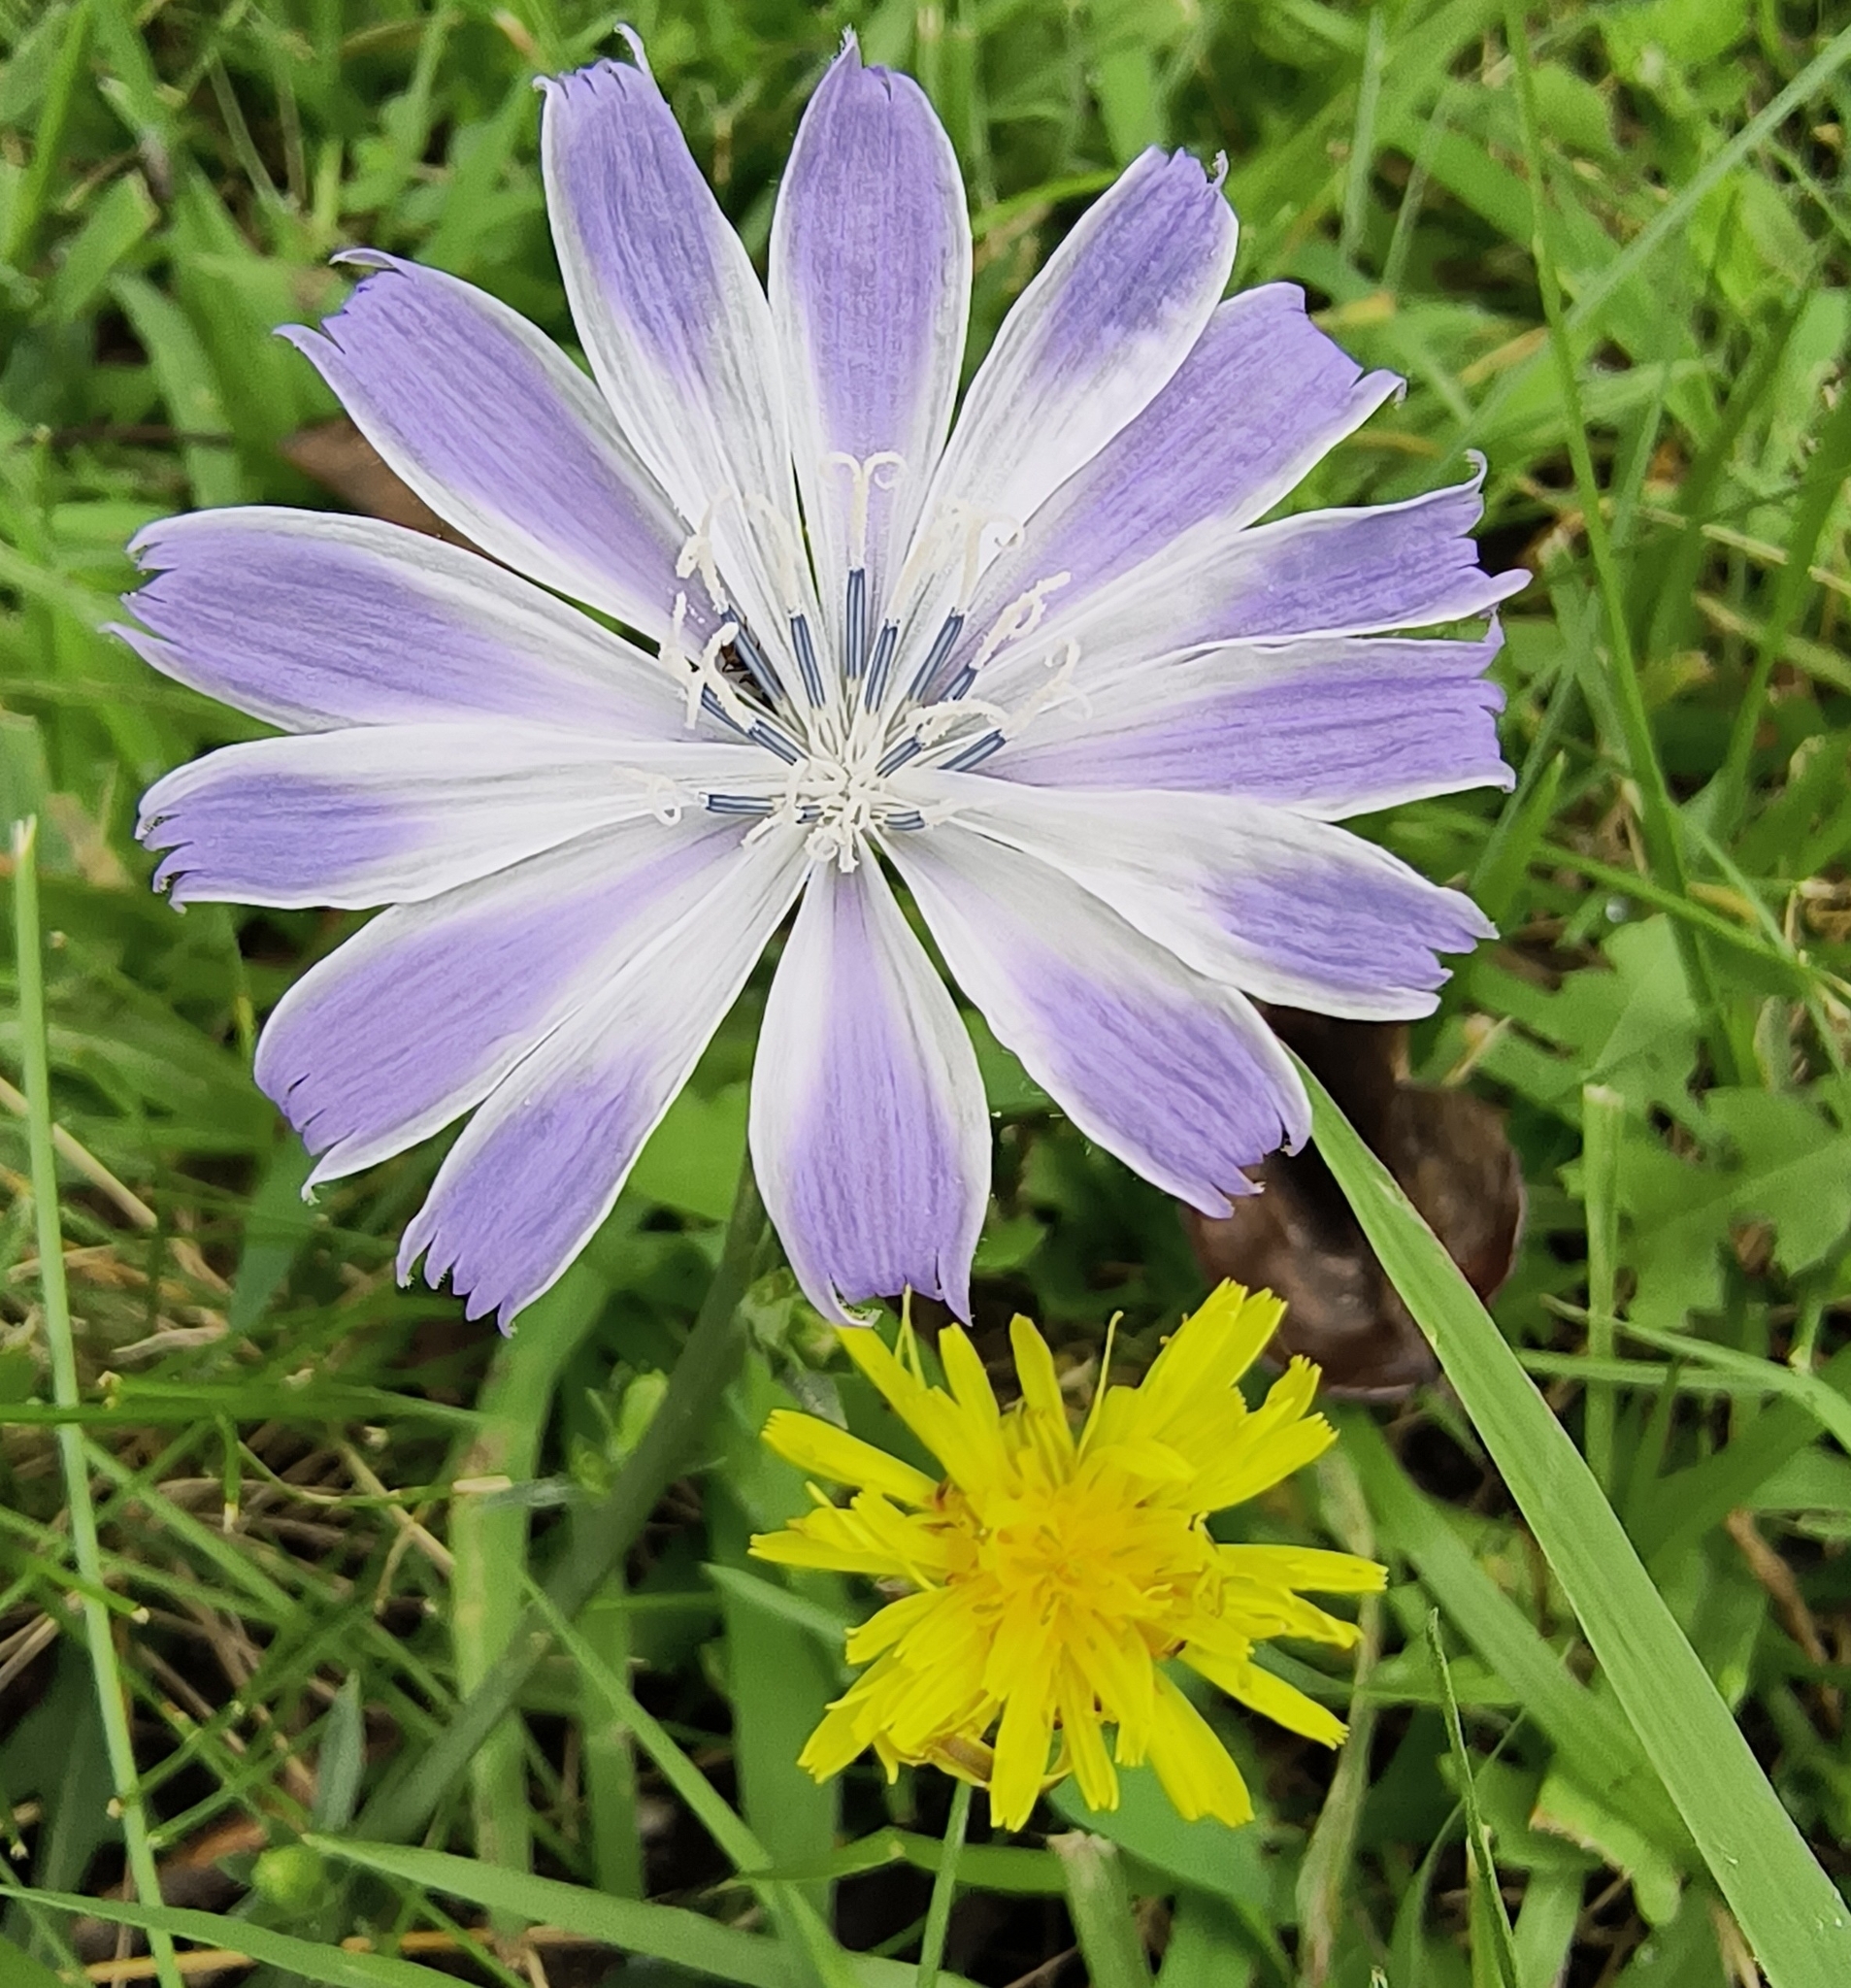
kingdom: Plantae
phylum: Tracheophyta
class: Magnoliopsida
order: Asterales
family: Asteraceae
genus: Cichorium
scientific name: Cichorium intybus
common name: Chicory
